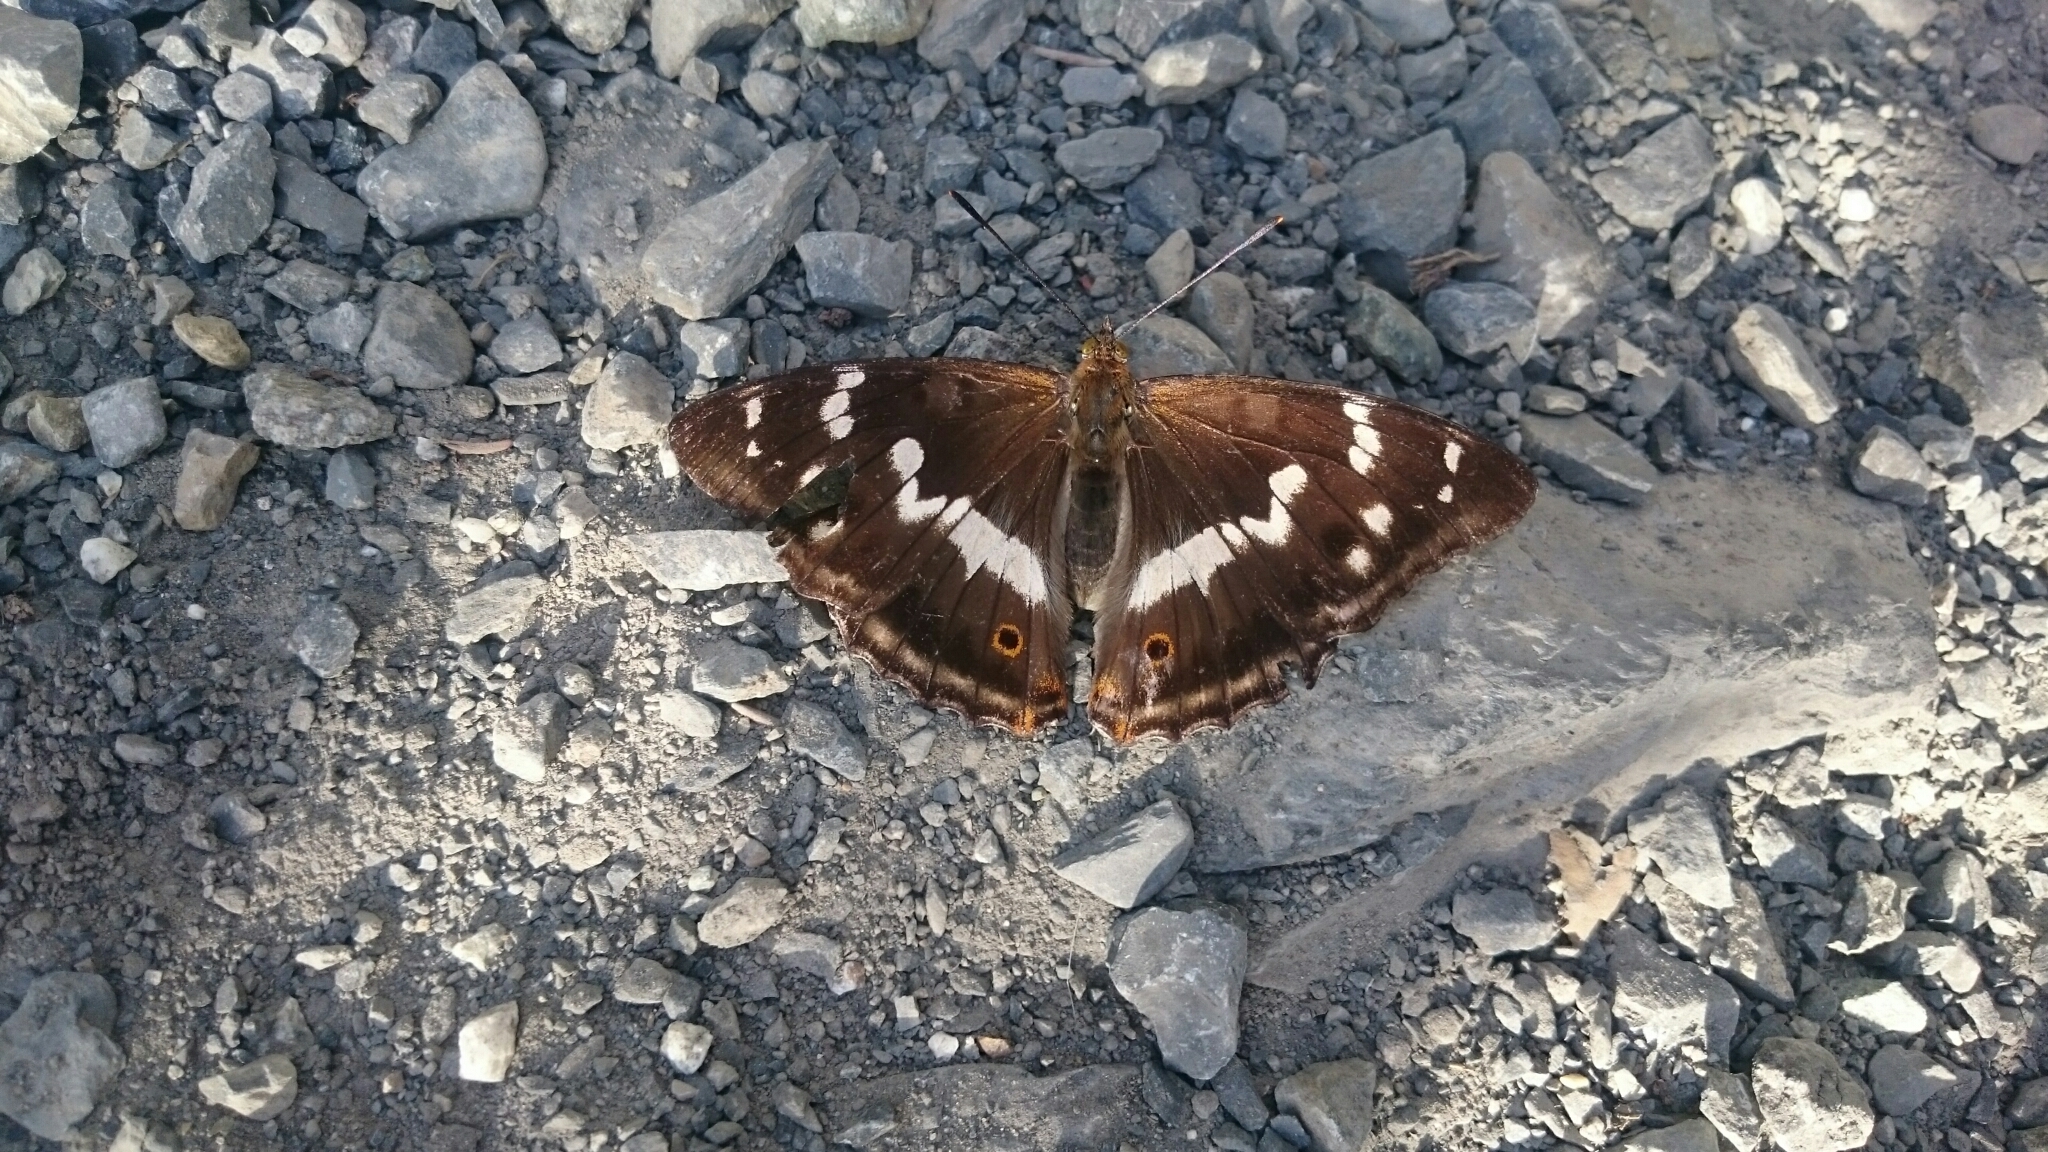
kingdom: Animalia
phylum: Arthropoda
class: Insecta
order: Lepidoptera
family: Nymphalidae
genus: Apatura
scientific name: Apatura iris
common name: Purple emperor
